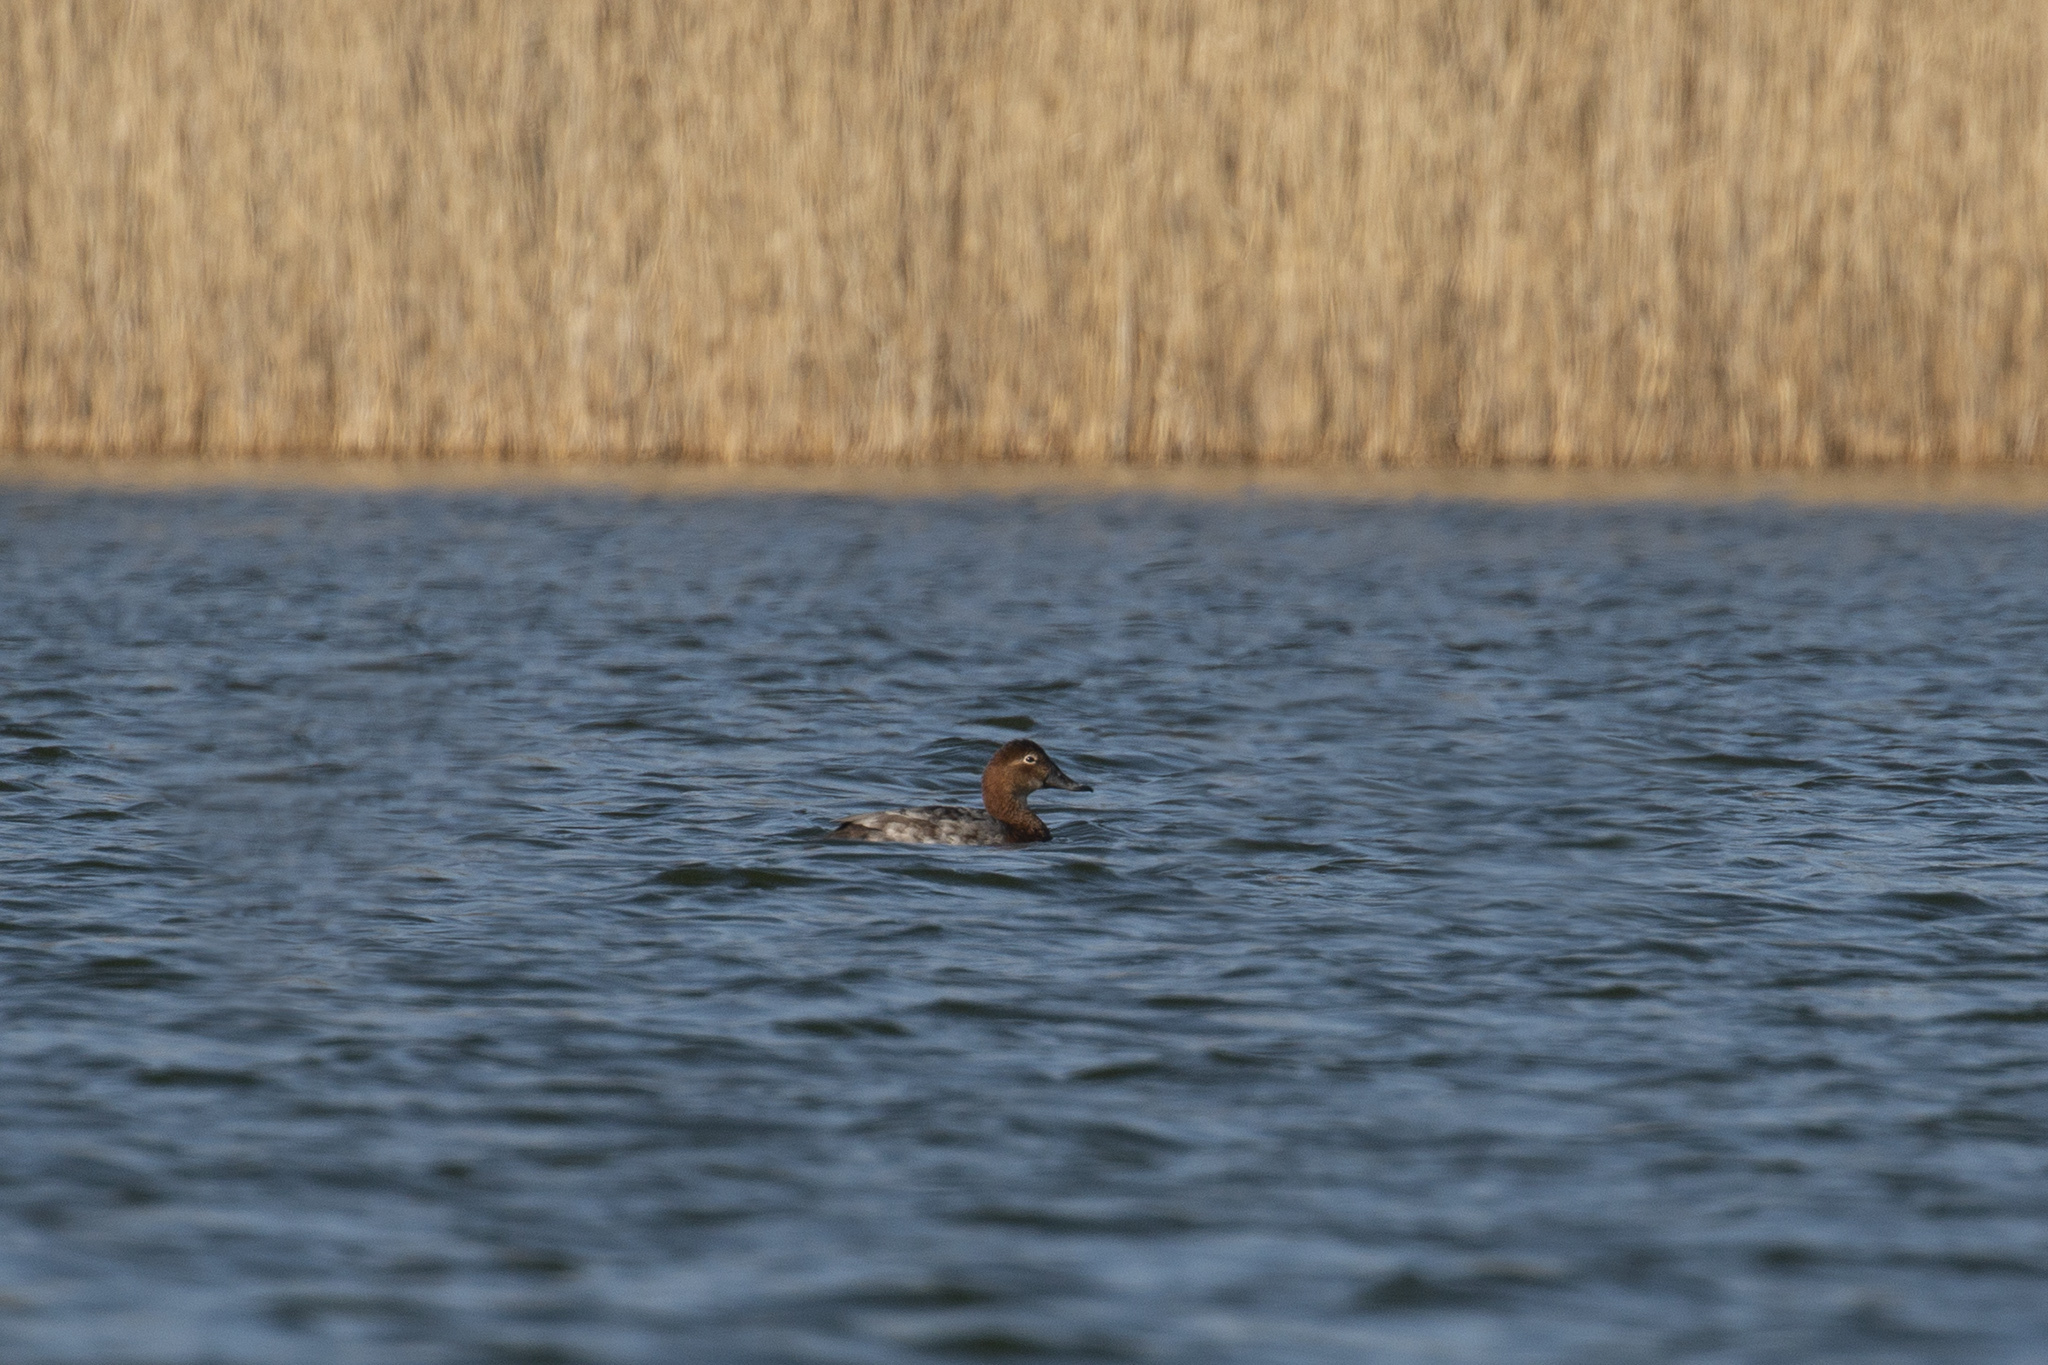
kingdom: Animalia
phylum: Chordata
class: Aves
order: Anseriformes
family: Anatidae
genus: Aythya
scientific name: Aythya ferina
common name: Common pochard
